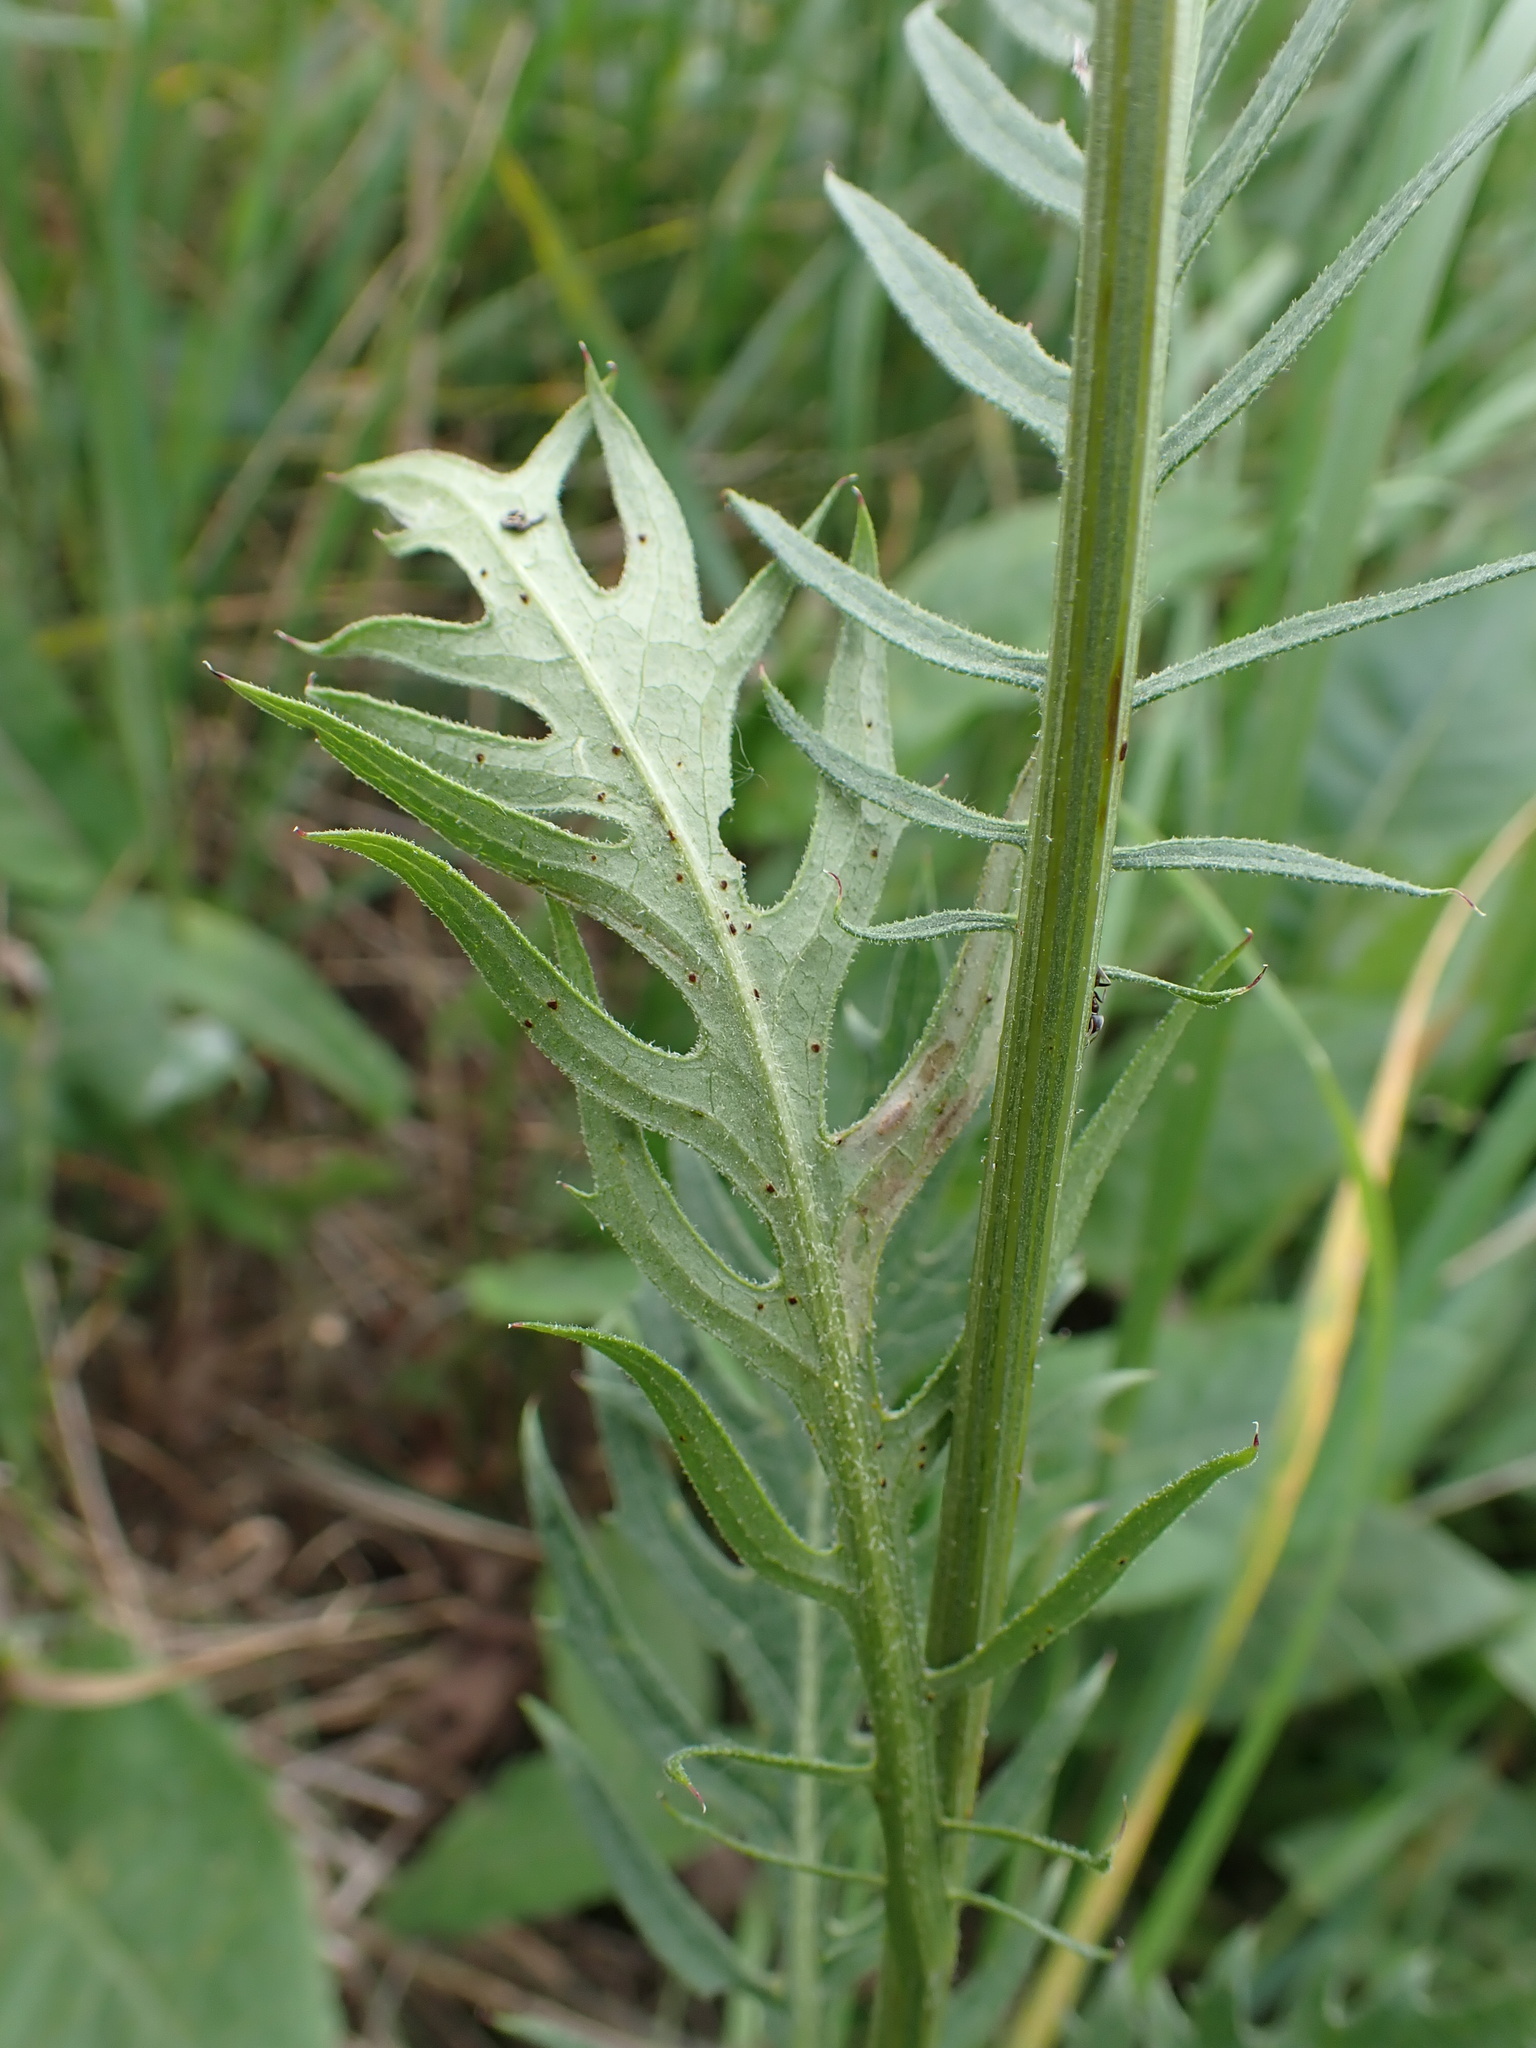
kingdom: Plantae
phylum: Tracheophyta
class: Magnoliopsida
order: Asterales
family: Asteraceae
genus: Klasea
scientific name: Klasea lycopifolia
